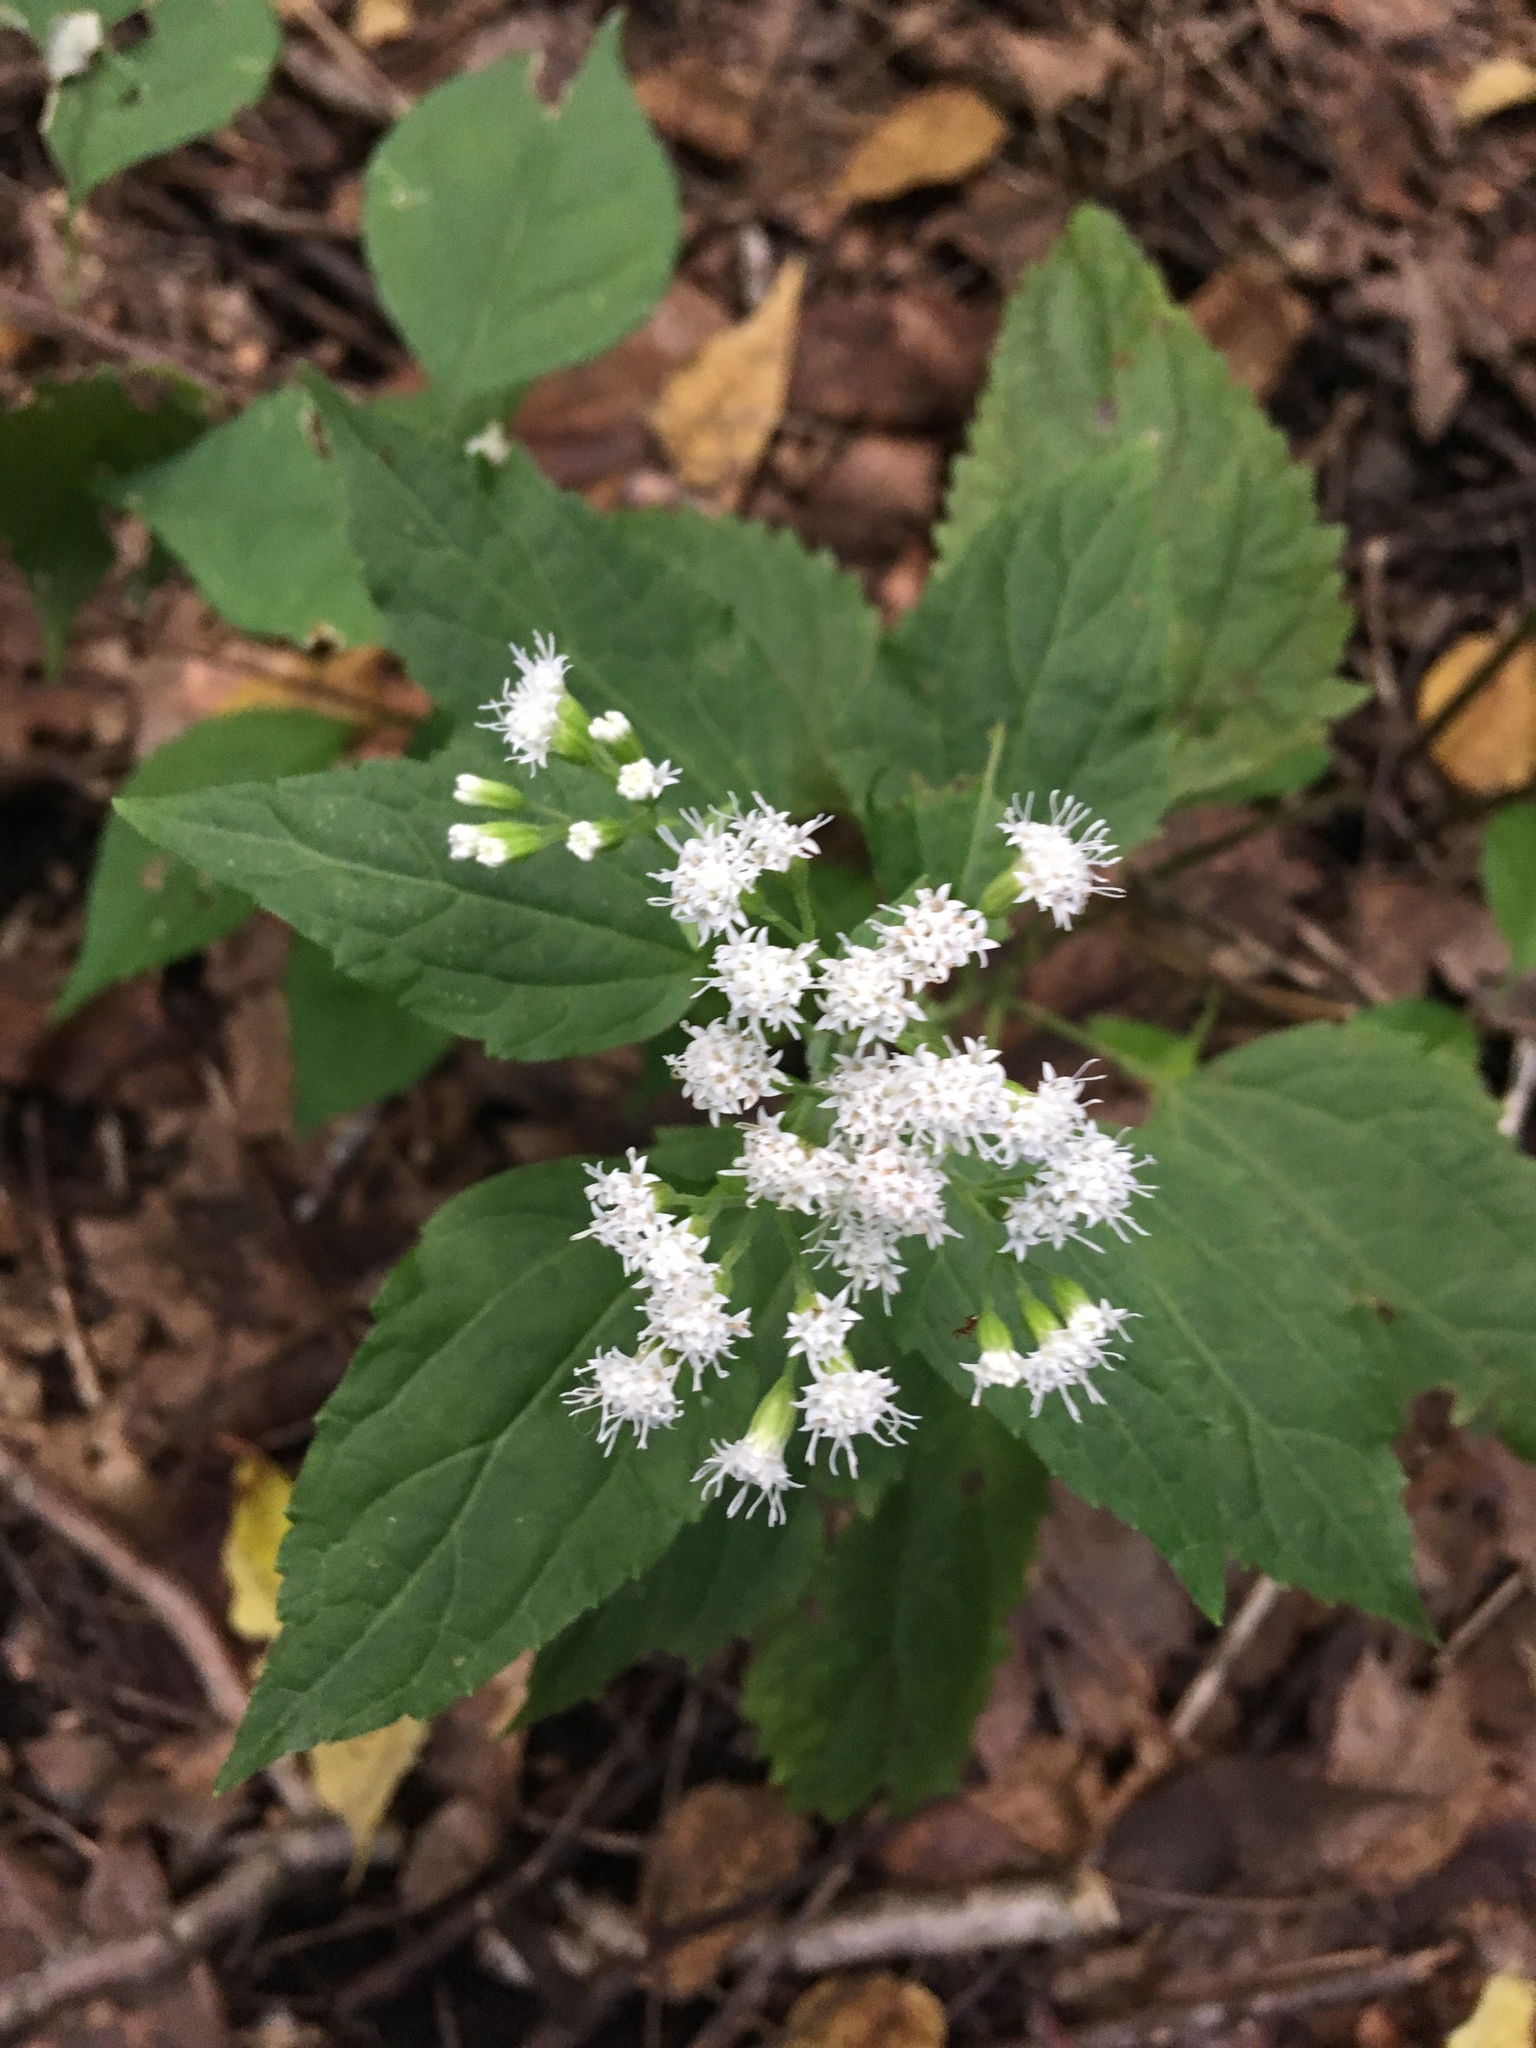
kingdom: Plantae
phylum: Tracheophyta
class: Magnoliopsida
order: Asterales
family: Asteraceae
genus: Ageratina
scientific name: Ageratina altissima
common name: White snakeroot
